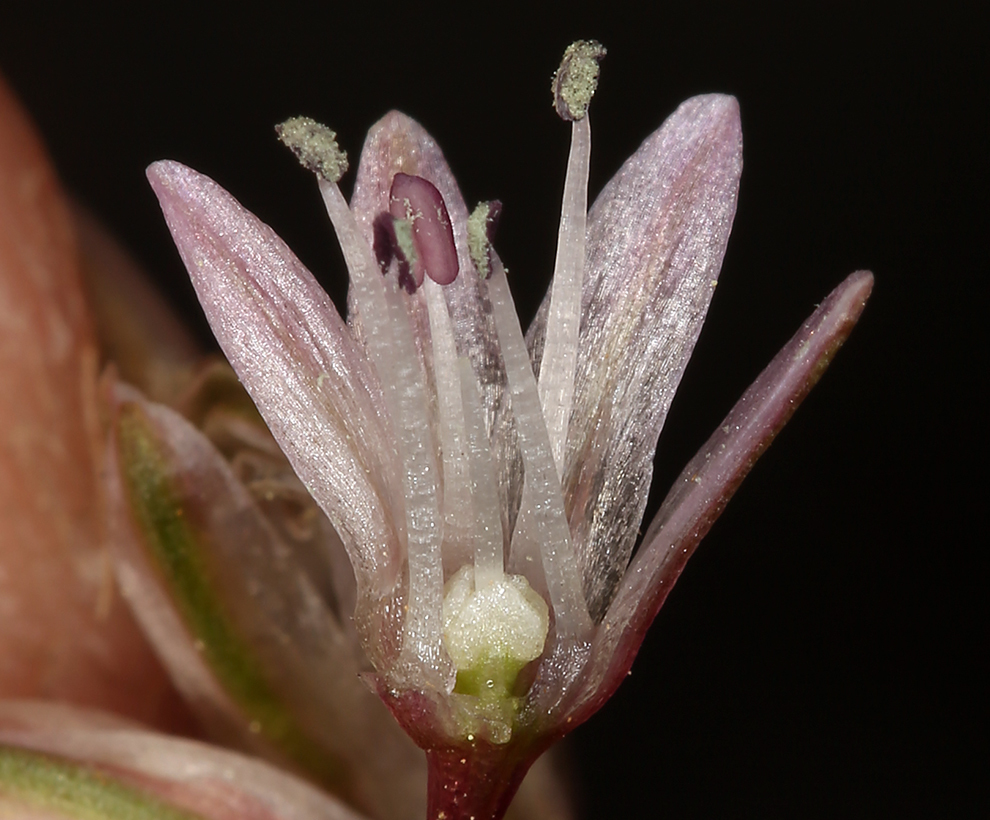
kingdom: Plantae
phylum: Tracheophyta
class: Liliopsida
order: Asparagales
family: Amaryllidaceae
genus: Allium
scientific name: Allium obtusum
